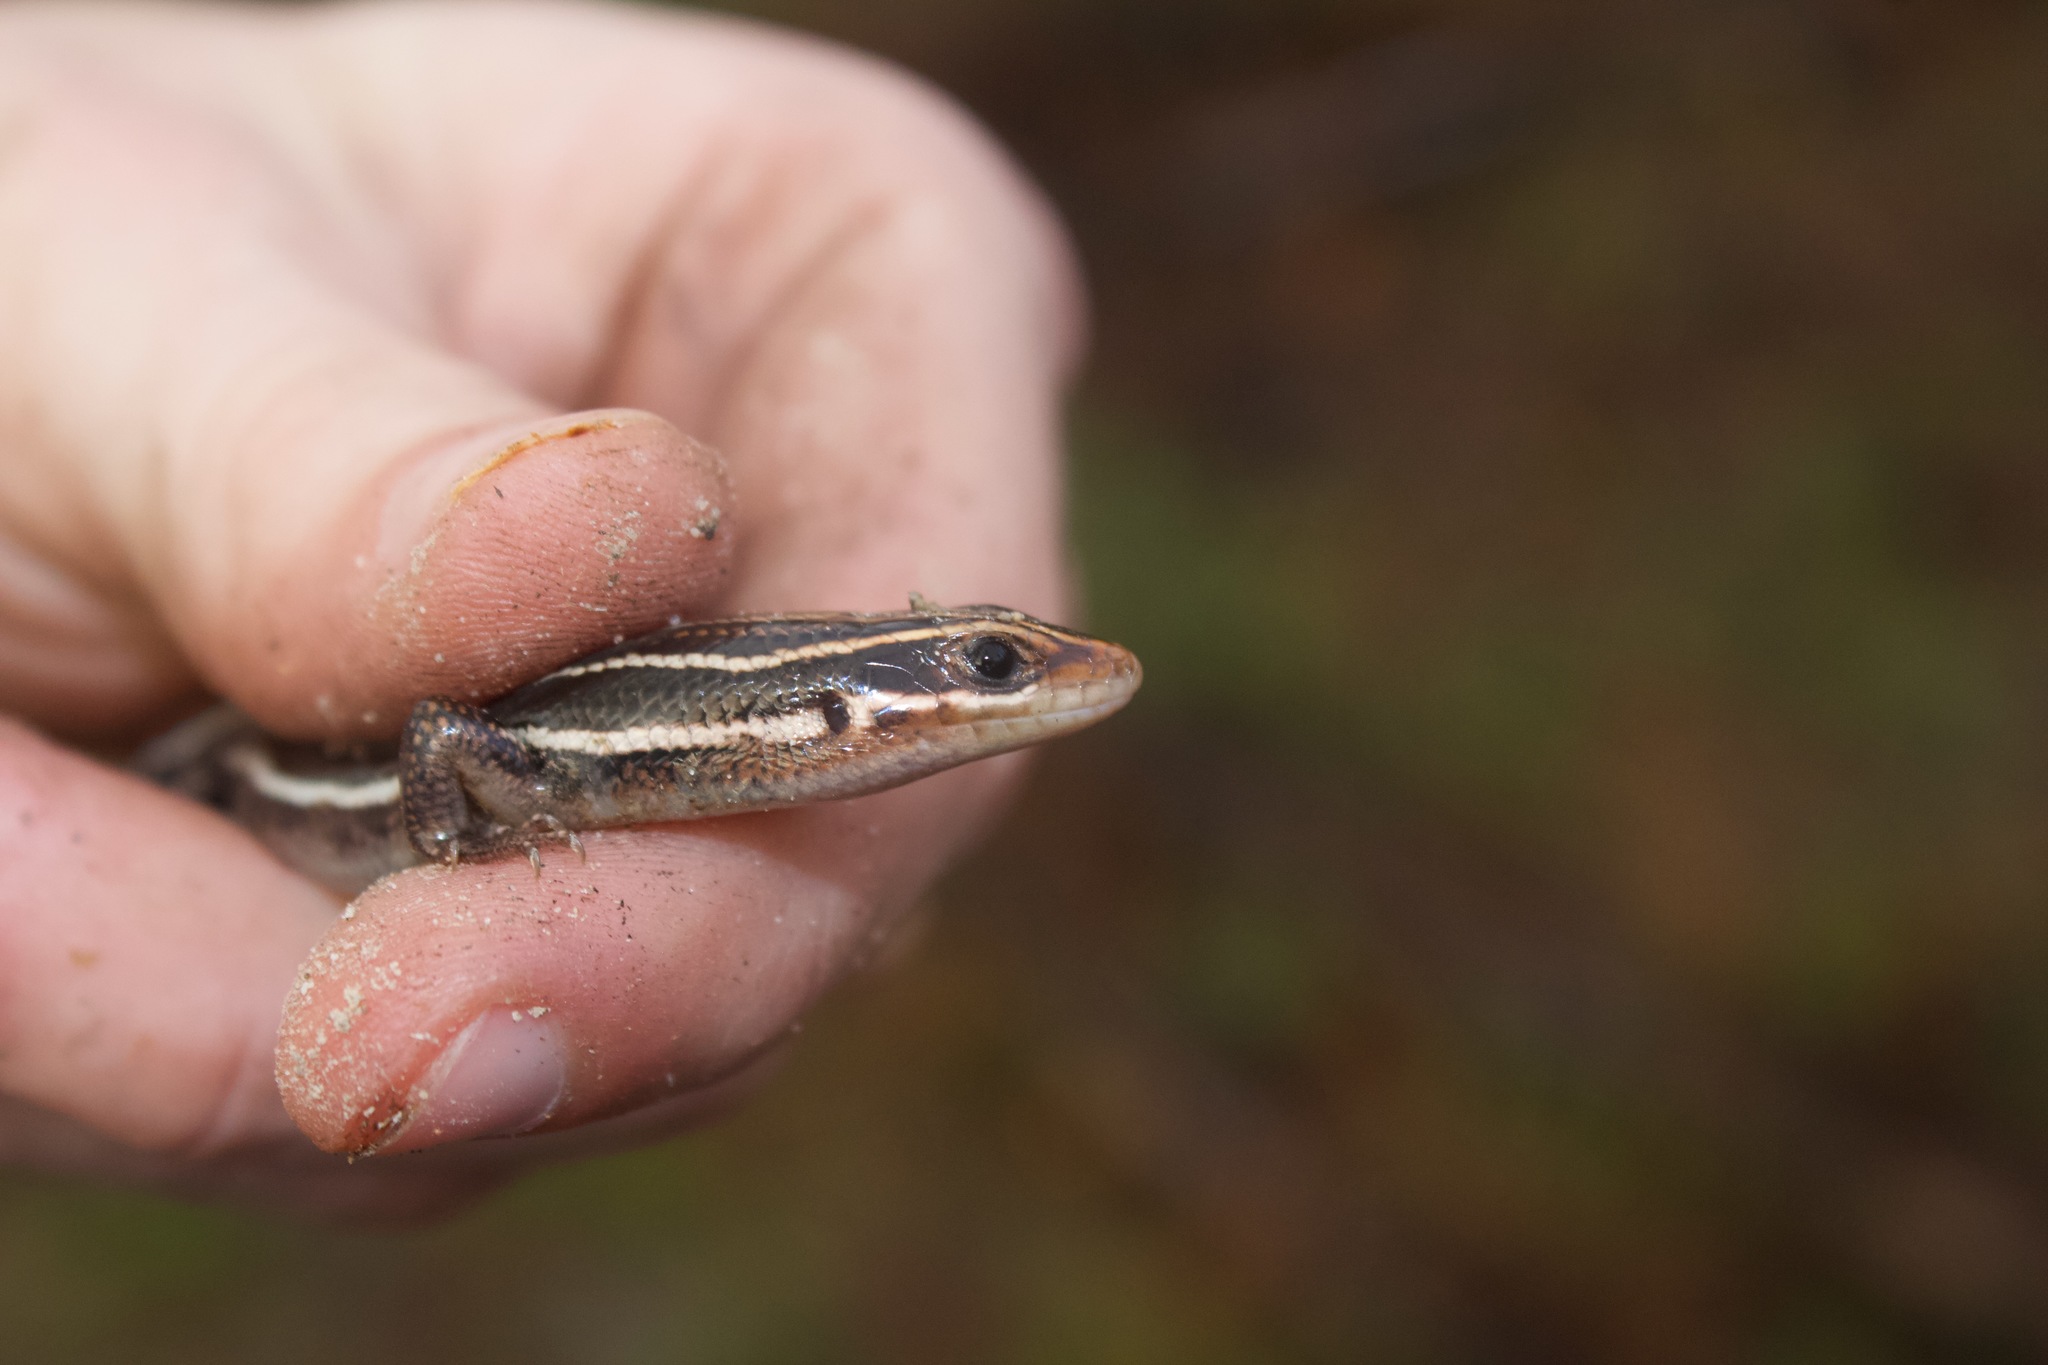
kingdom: Animalia
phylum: Chordata
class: Squamata
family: Scincidae
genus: Plestiodon
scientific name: Plestiodon inexpectatus
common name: Southeastern five-lined skink
